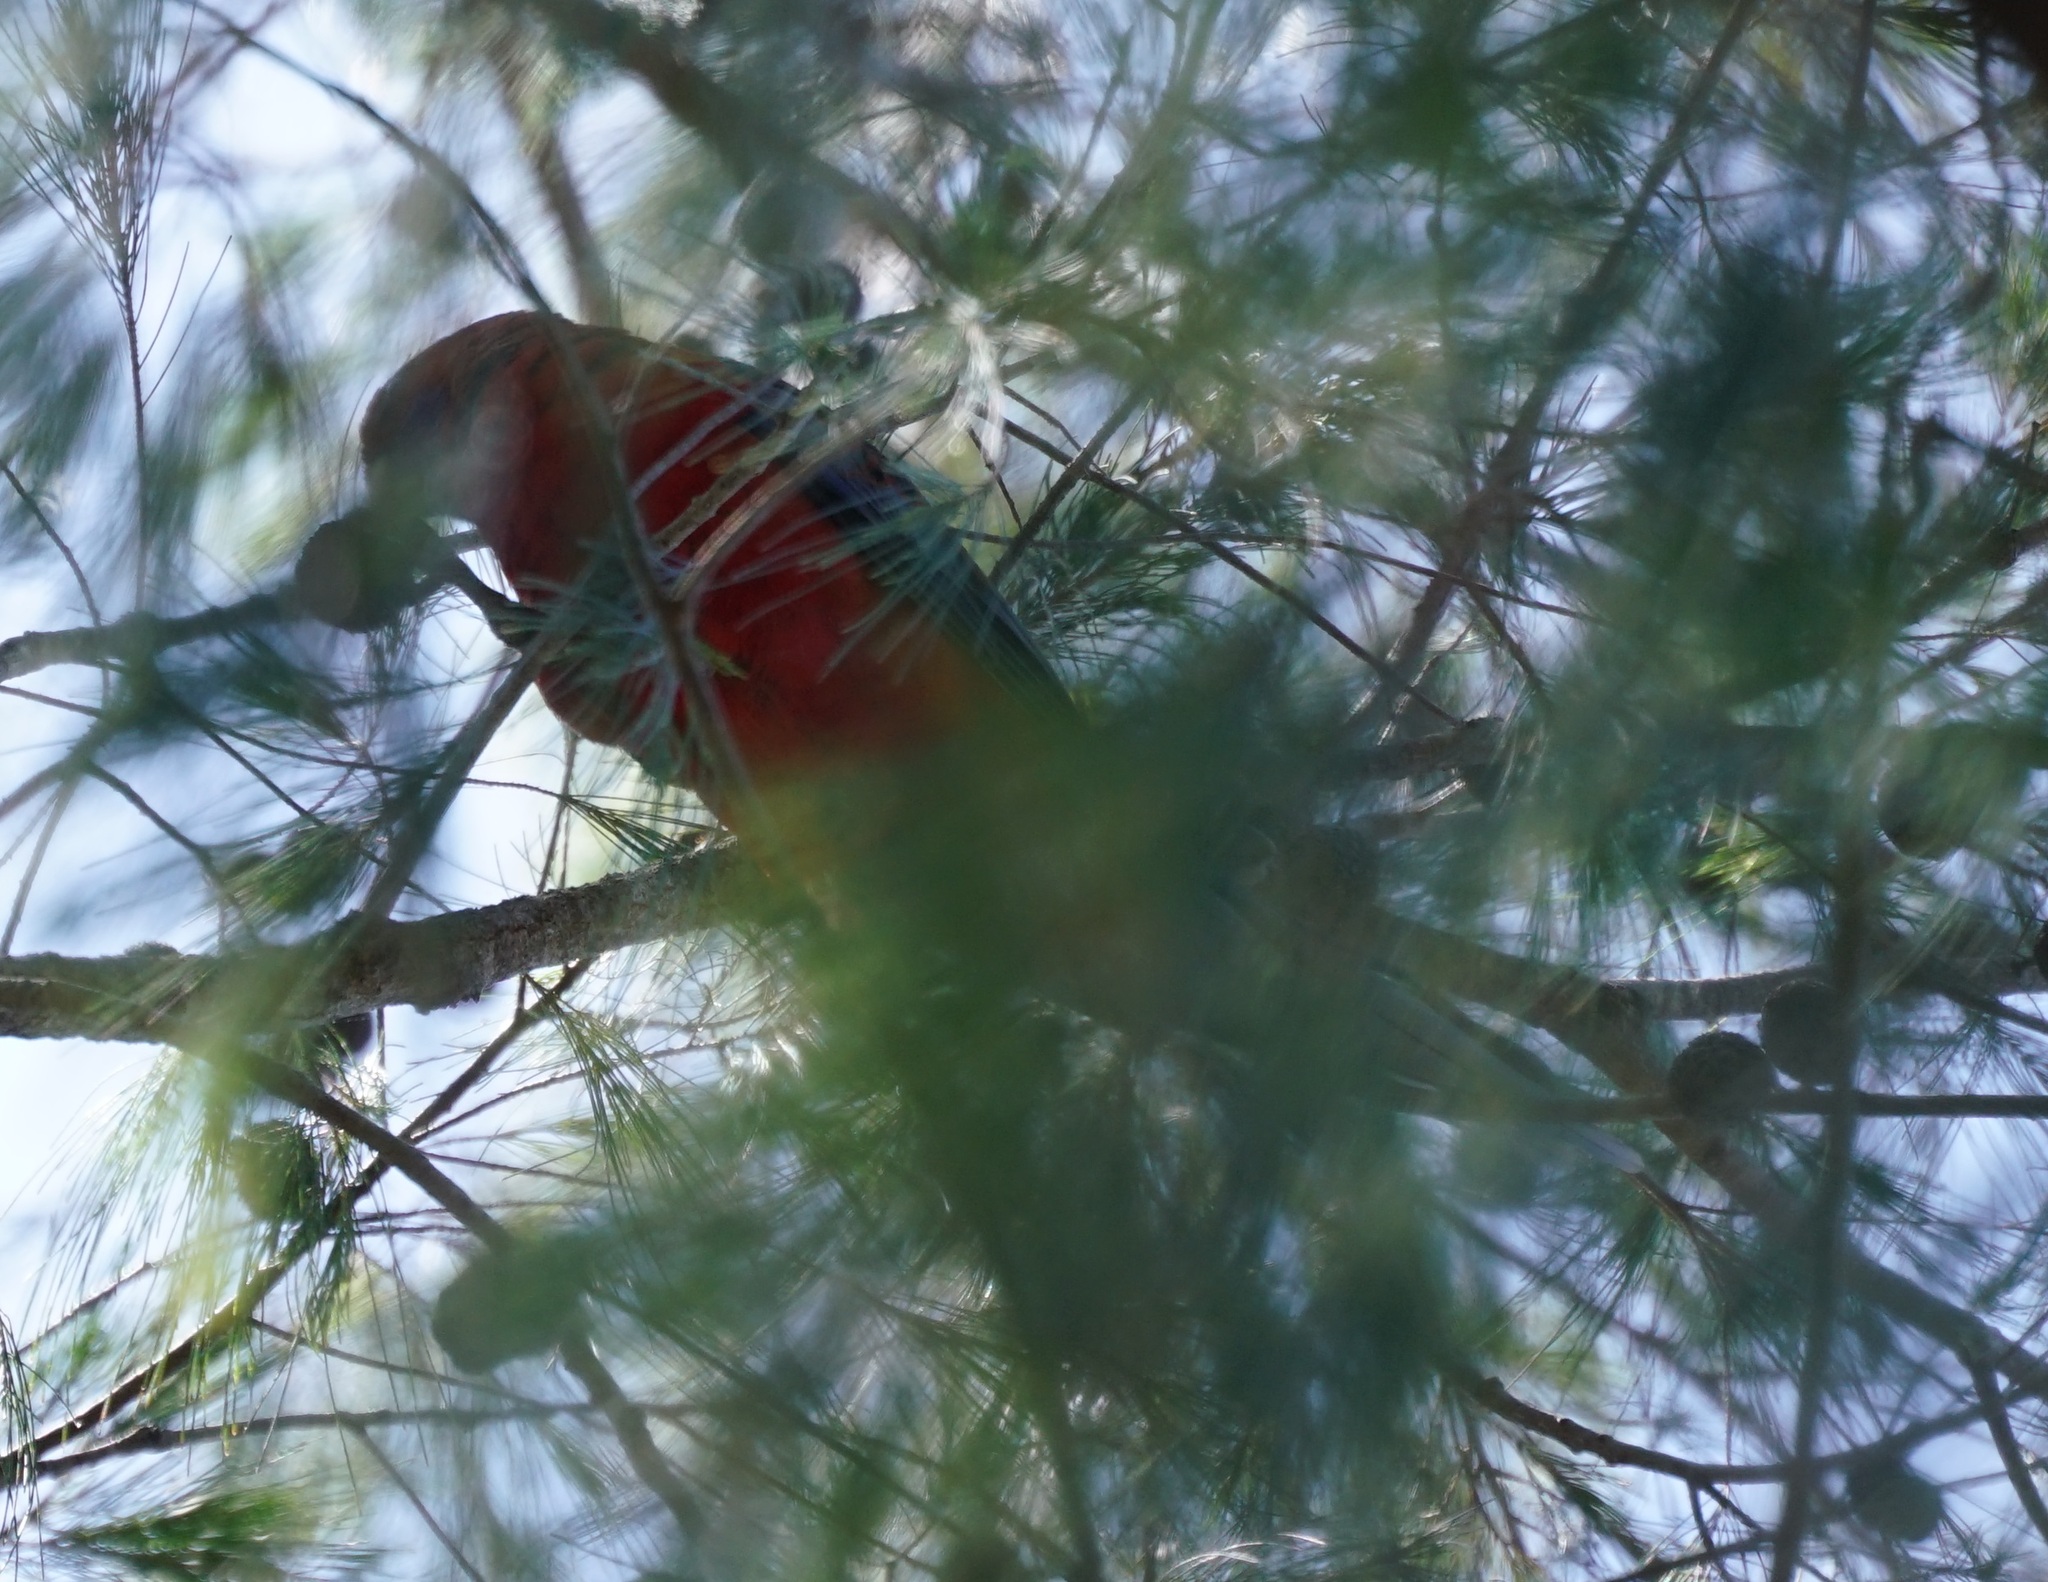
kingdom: Animalia
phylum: Chordata
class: Aves
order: Psittaciformes
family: Psittacidae
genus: Platycercus
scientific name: Platycercus elegans
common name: Crimson rosella
